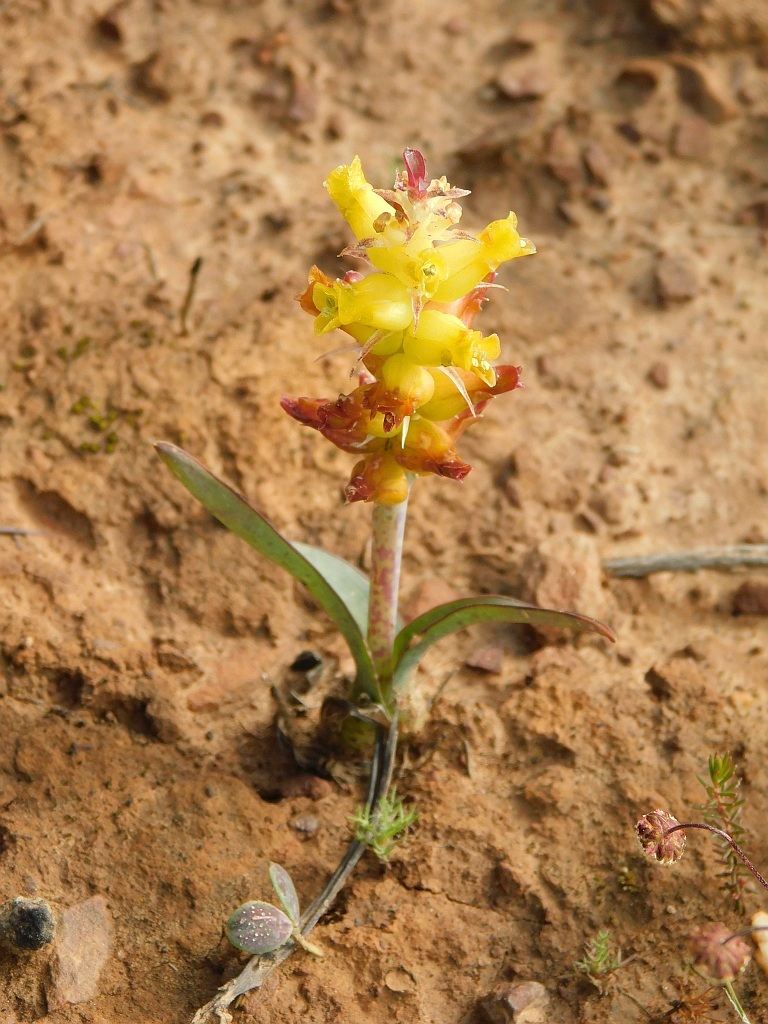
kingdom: Plantae
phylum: Tracheophyta
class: Liliopsida
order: Asparagales
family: Asparagaceae
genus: Lachenalia
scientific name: Lachenalia lutea
